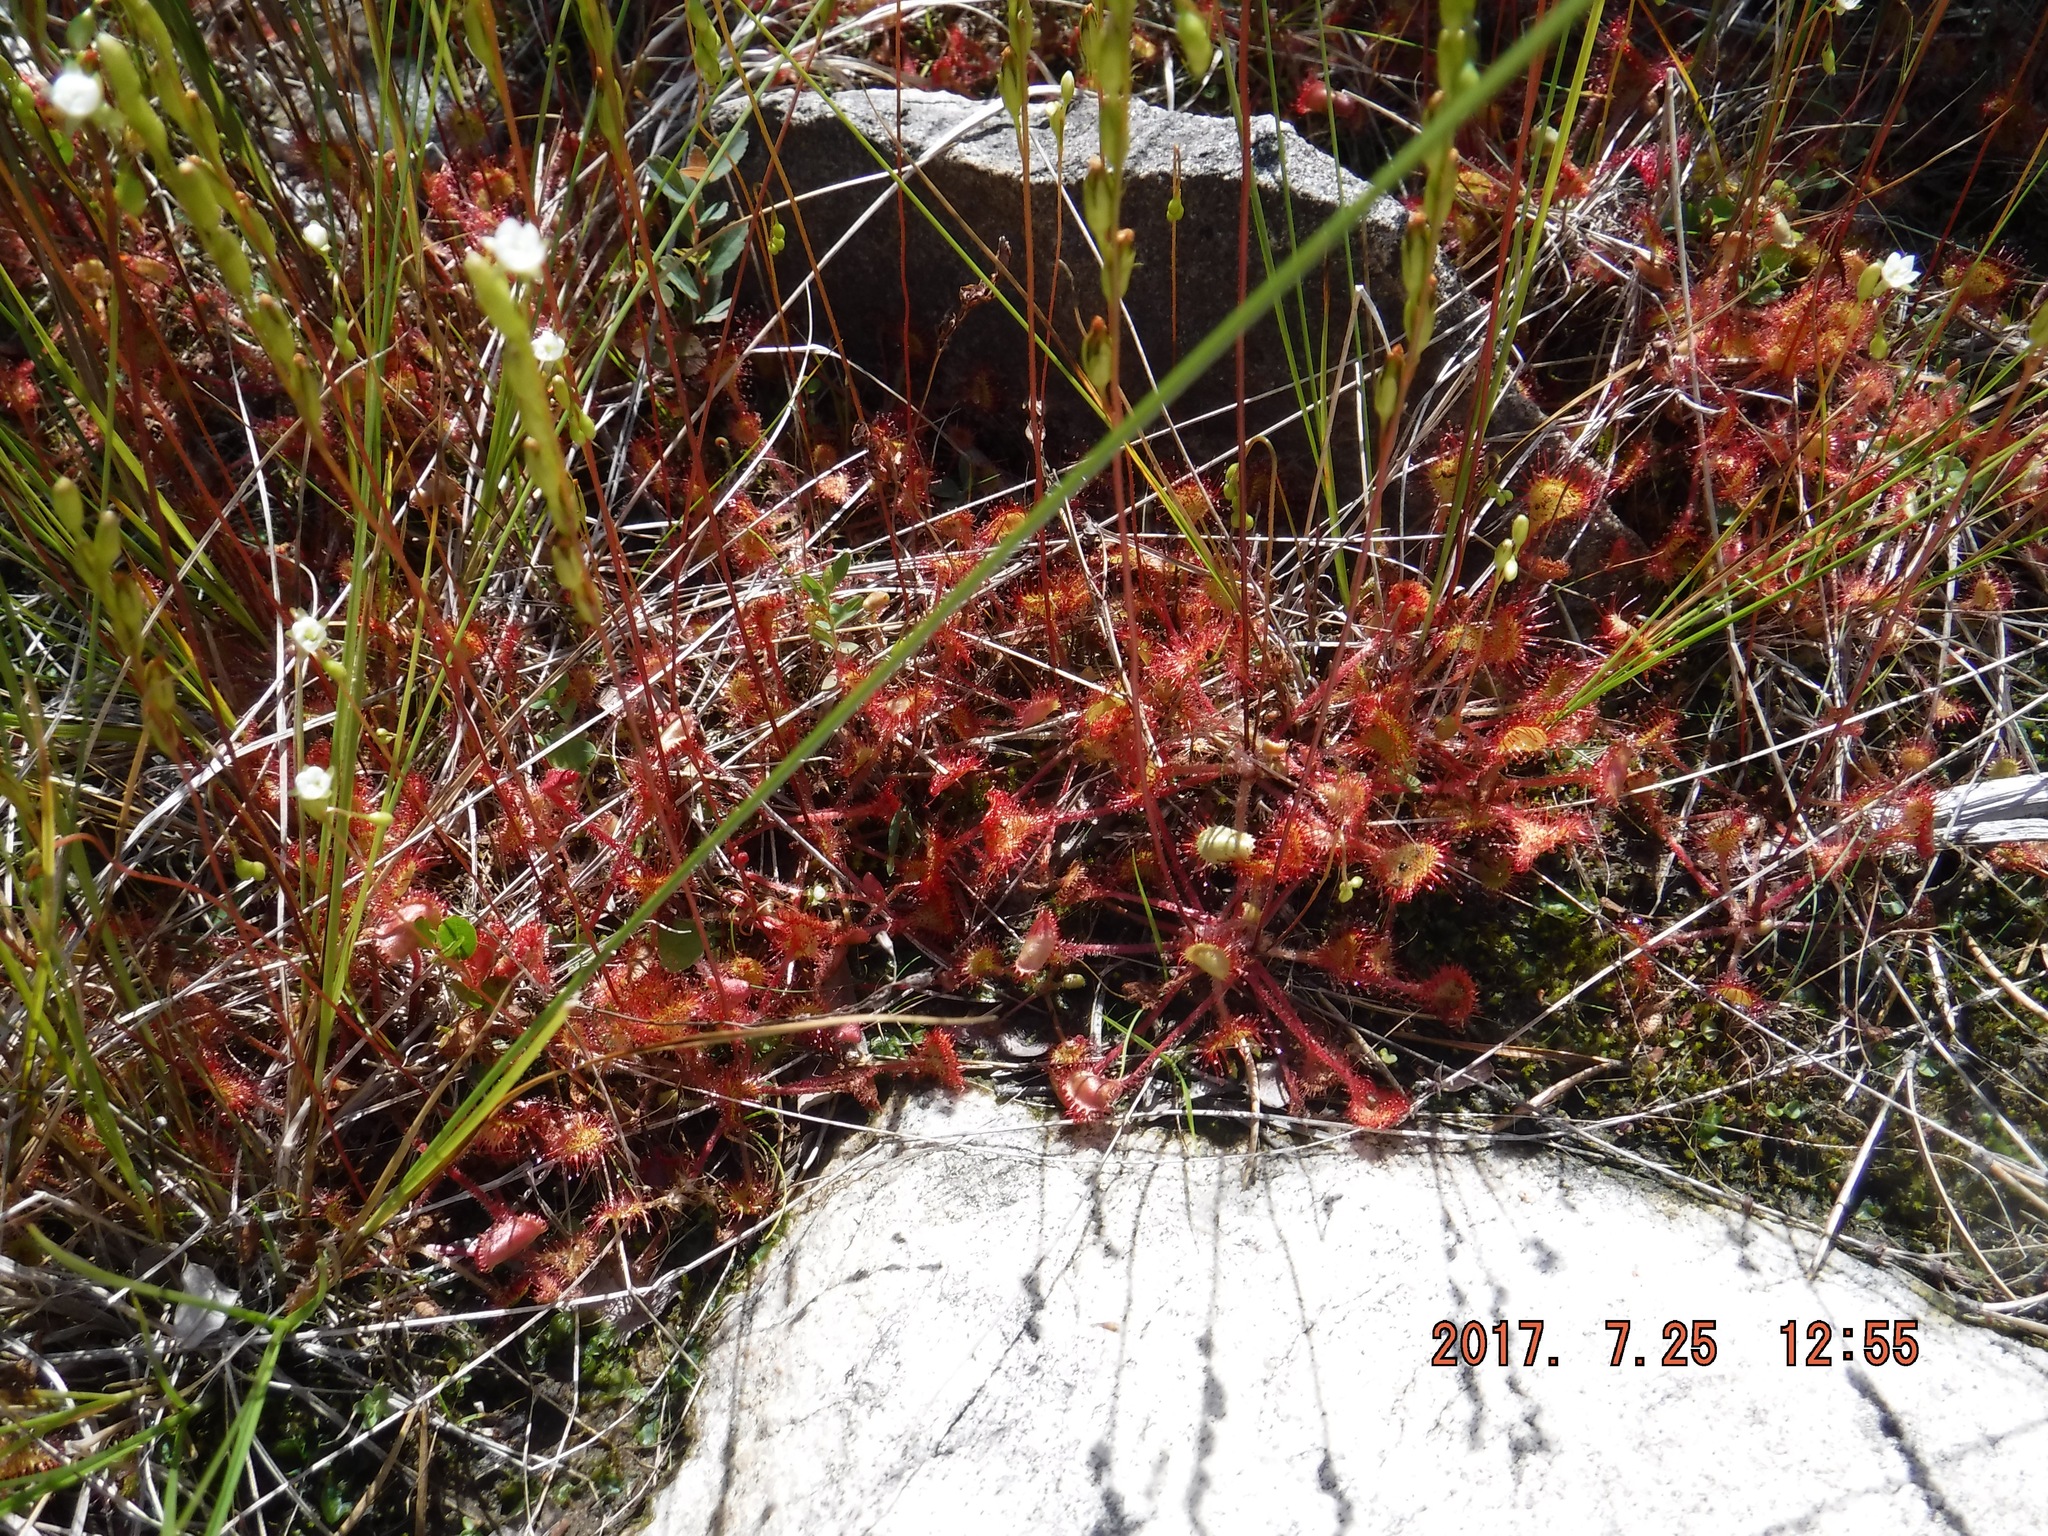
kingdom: Plantae
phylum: Tracheophyta
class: Magnoliopsida
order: Caryophyllales
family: Droseraceae
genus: Drosera
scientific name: Drosera rotundifolia
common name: Round-leaved sundew
